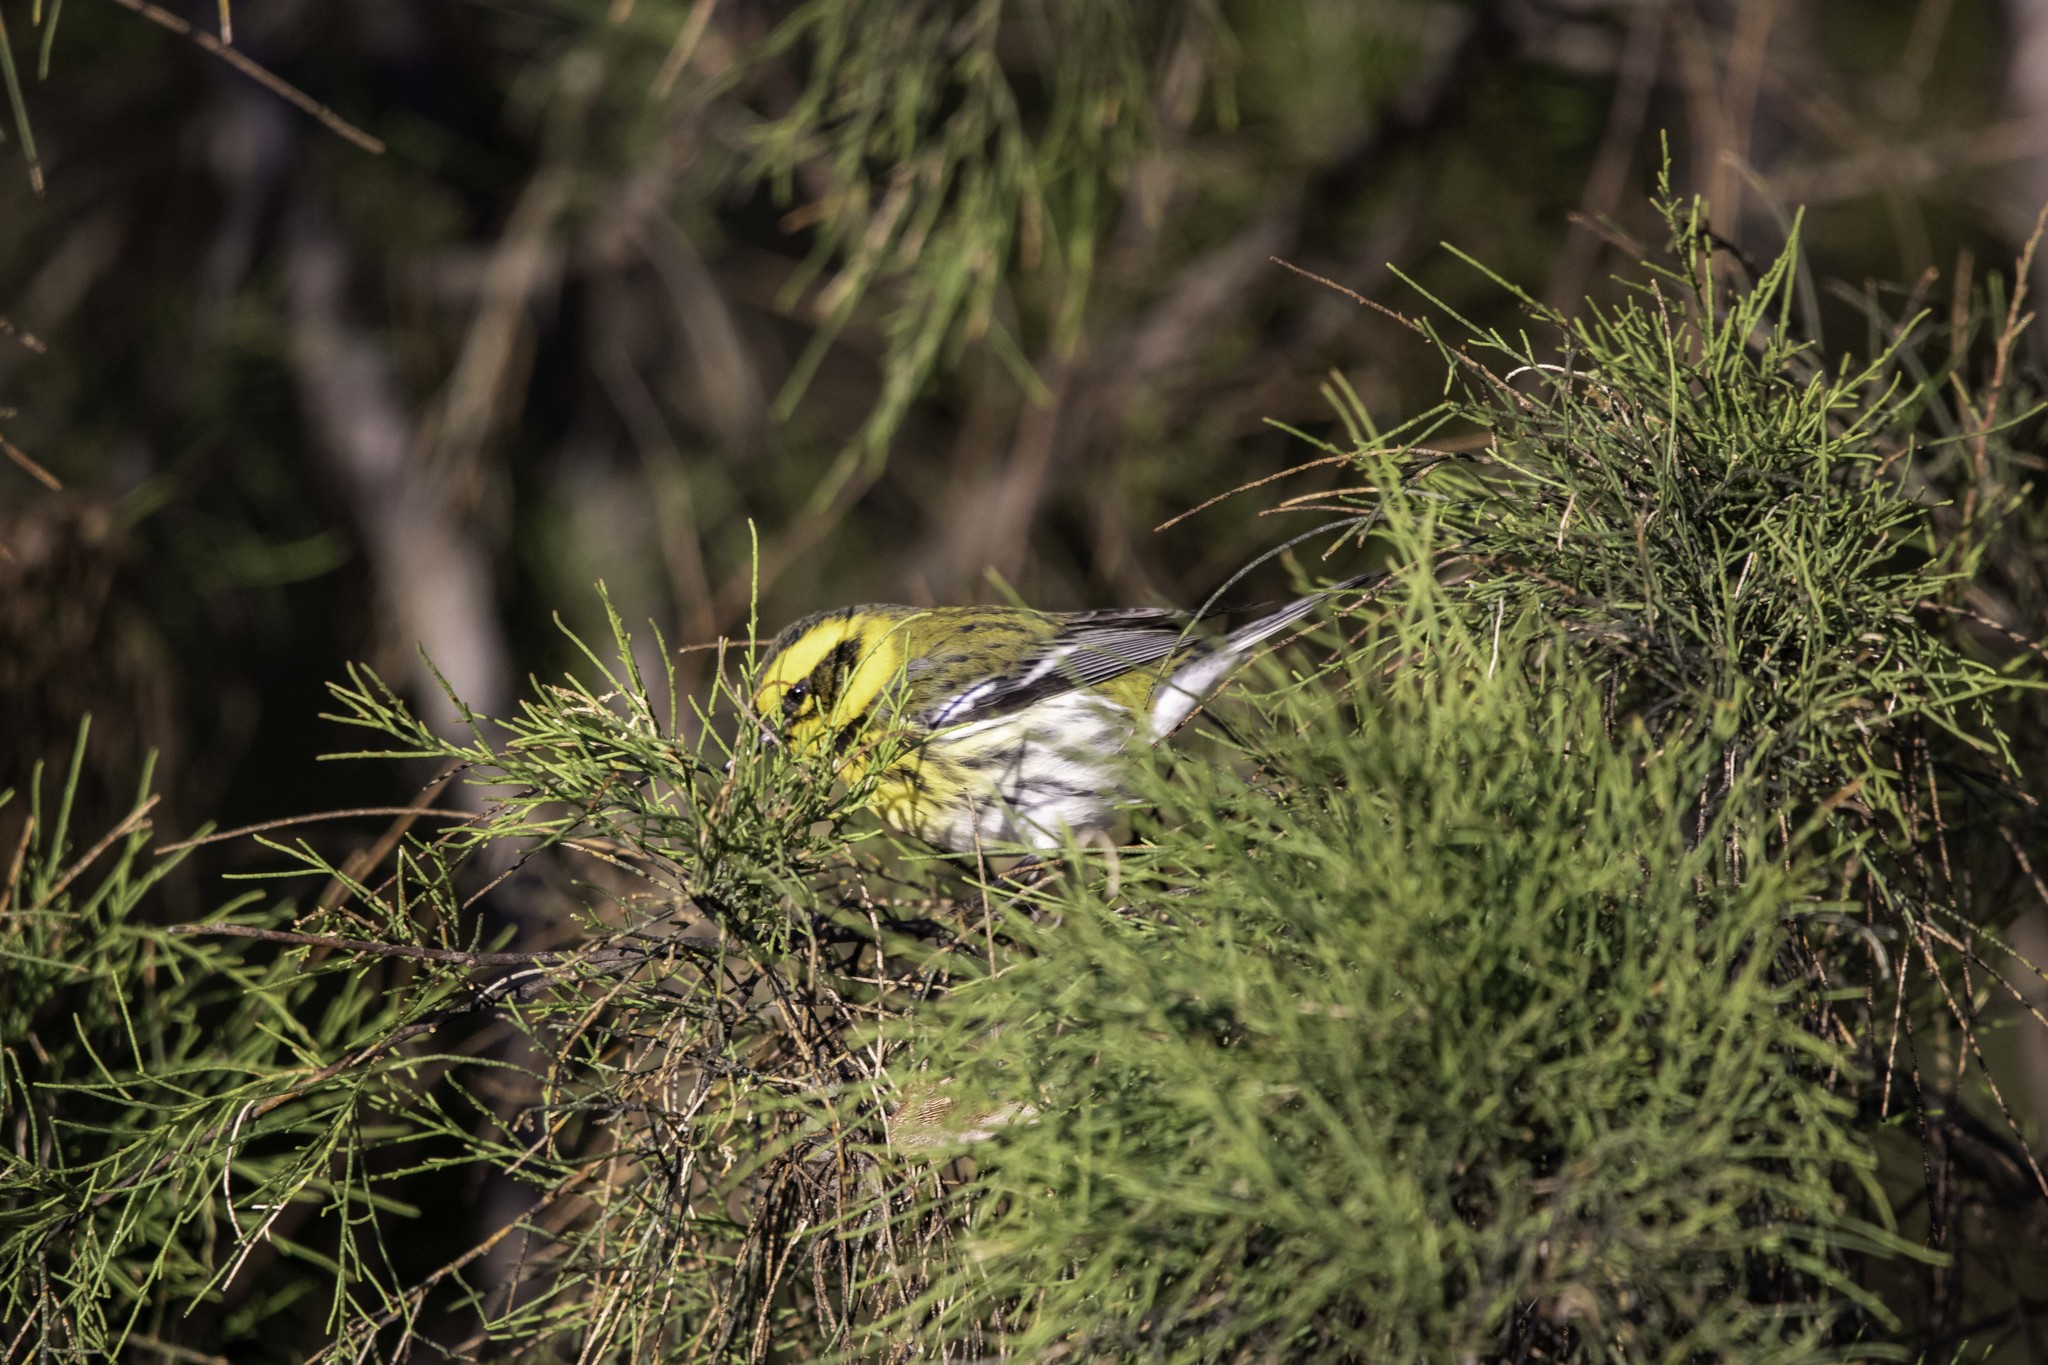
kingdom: Animalia
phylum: Chordata
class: Aves
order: Passeriformes
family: Parulidae
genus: Setophaga
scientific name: Setophaga townsendi
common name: Townsend's warbler
